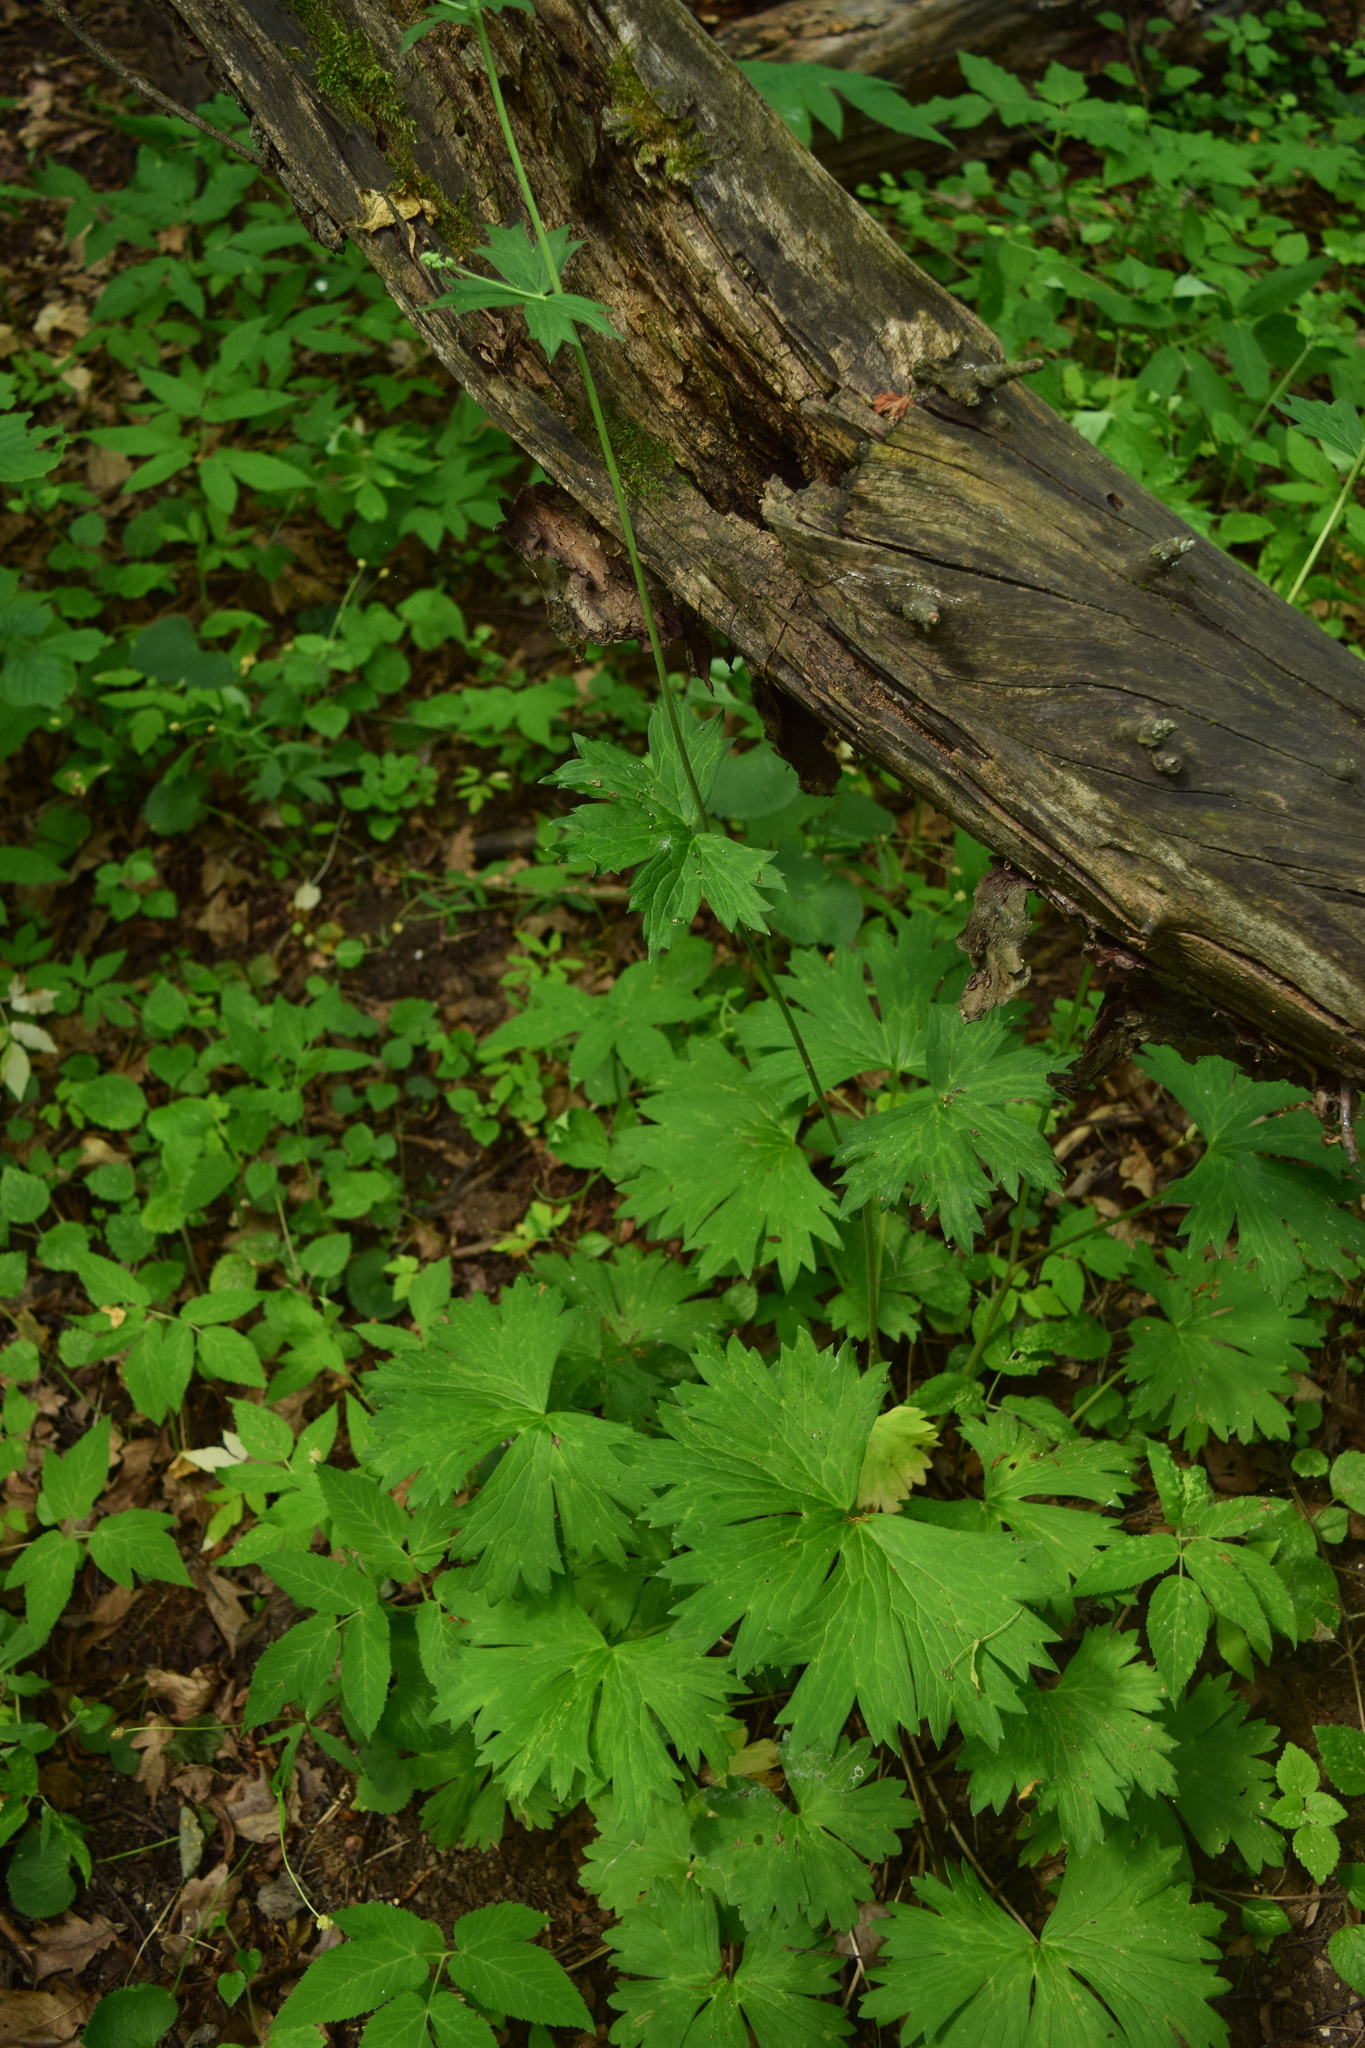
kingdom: Plantae
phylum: Tracheophyta
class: Magnoliopsida
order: Ranunculales
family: Ranunculaceae
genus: Aconitum
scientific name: Aconitum lasiostomum
